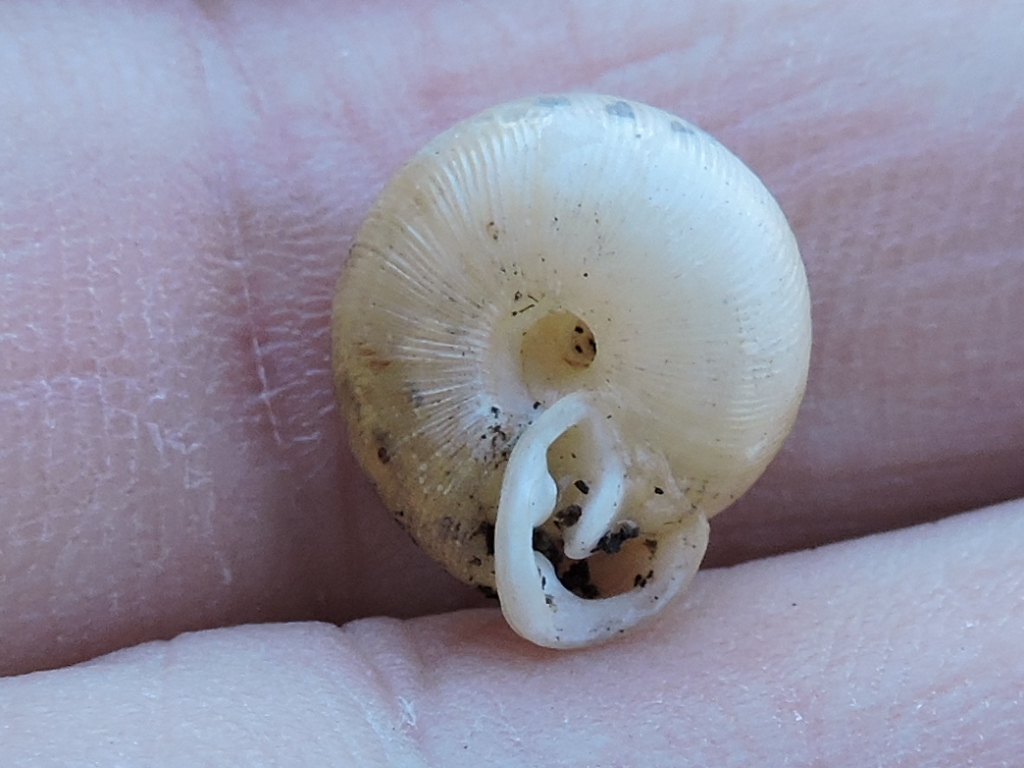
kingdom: Animalia
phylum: Mollusca
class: Gastropoda
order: Stylommatophora
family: Polygyridae
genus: Triodopsis
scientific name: Triodopsis vultuosa
